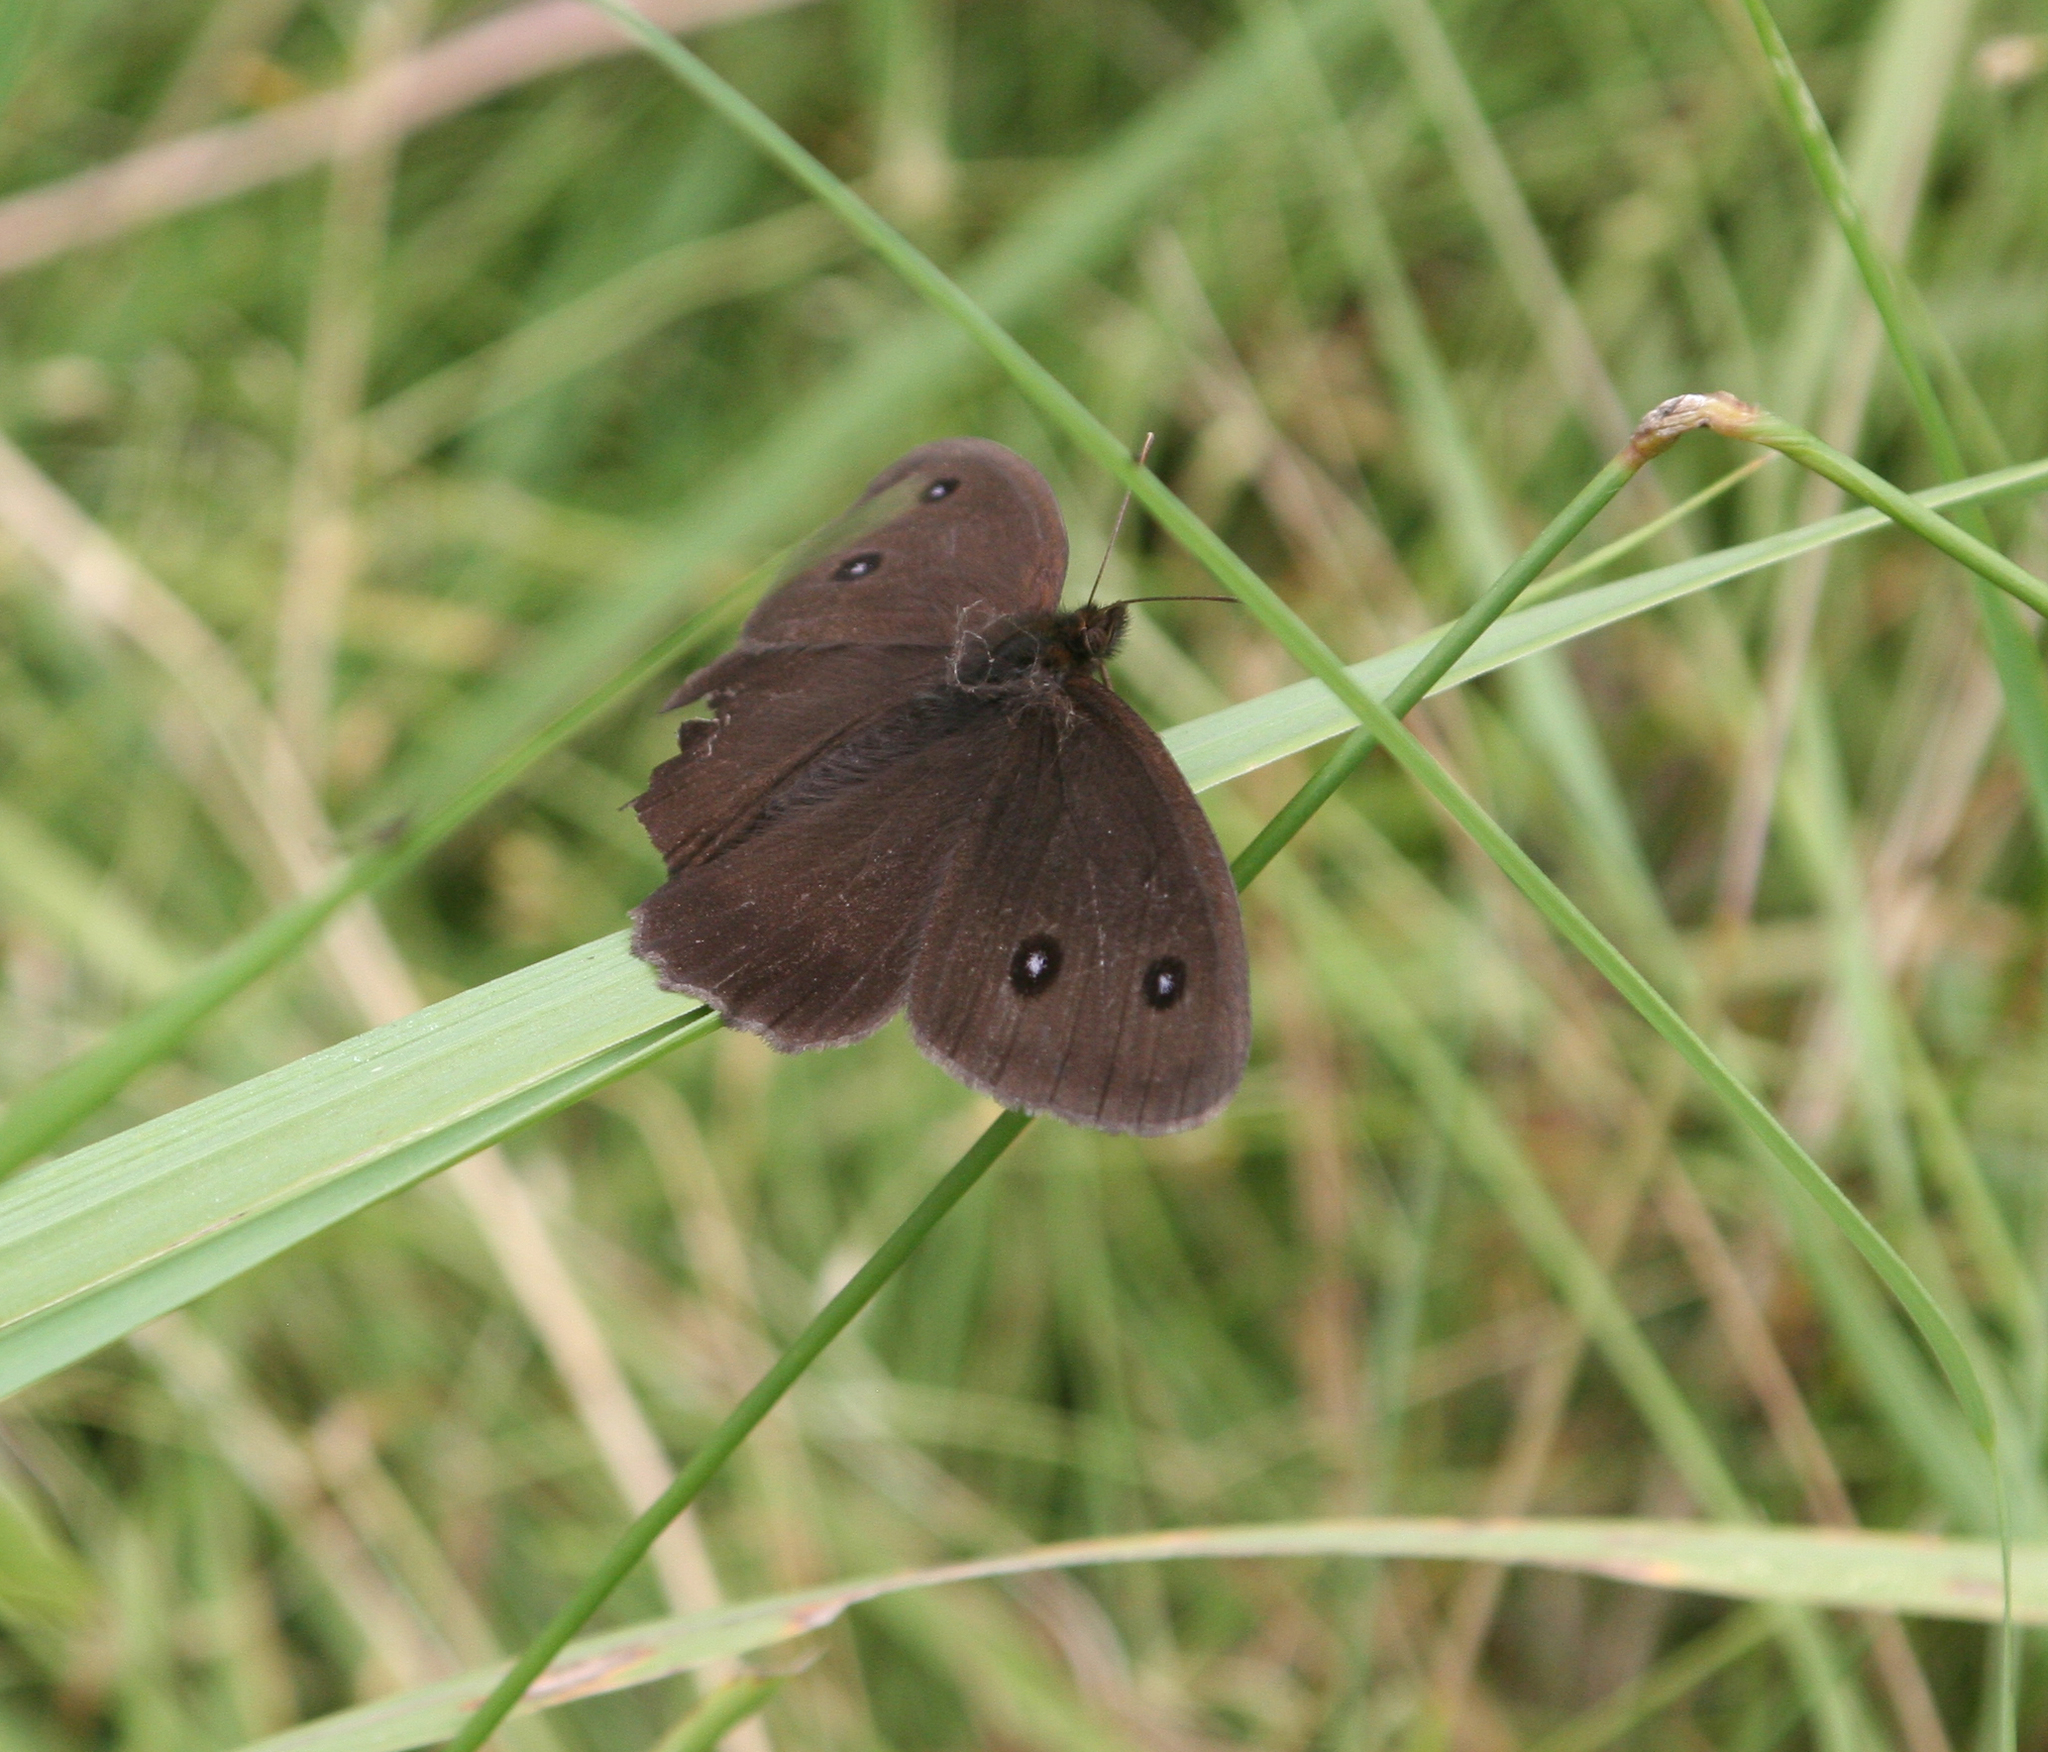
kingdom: Animalia
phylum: Arthropoda
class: Insecta
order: Lepidoptera
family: Nymphalidae
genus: Minois
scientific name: Minois dryas
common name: Dryad
